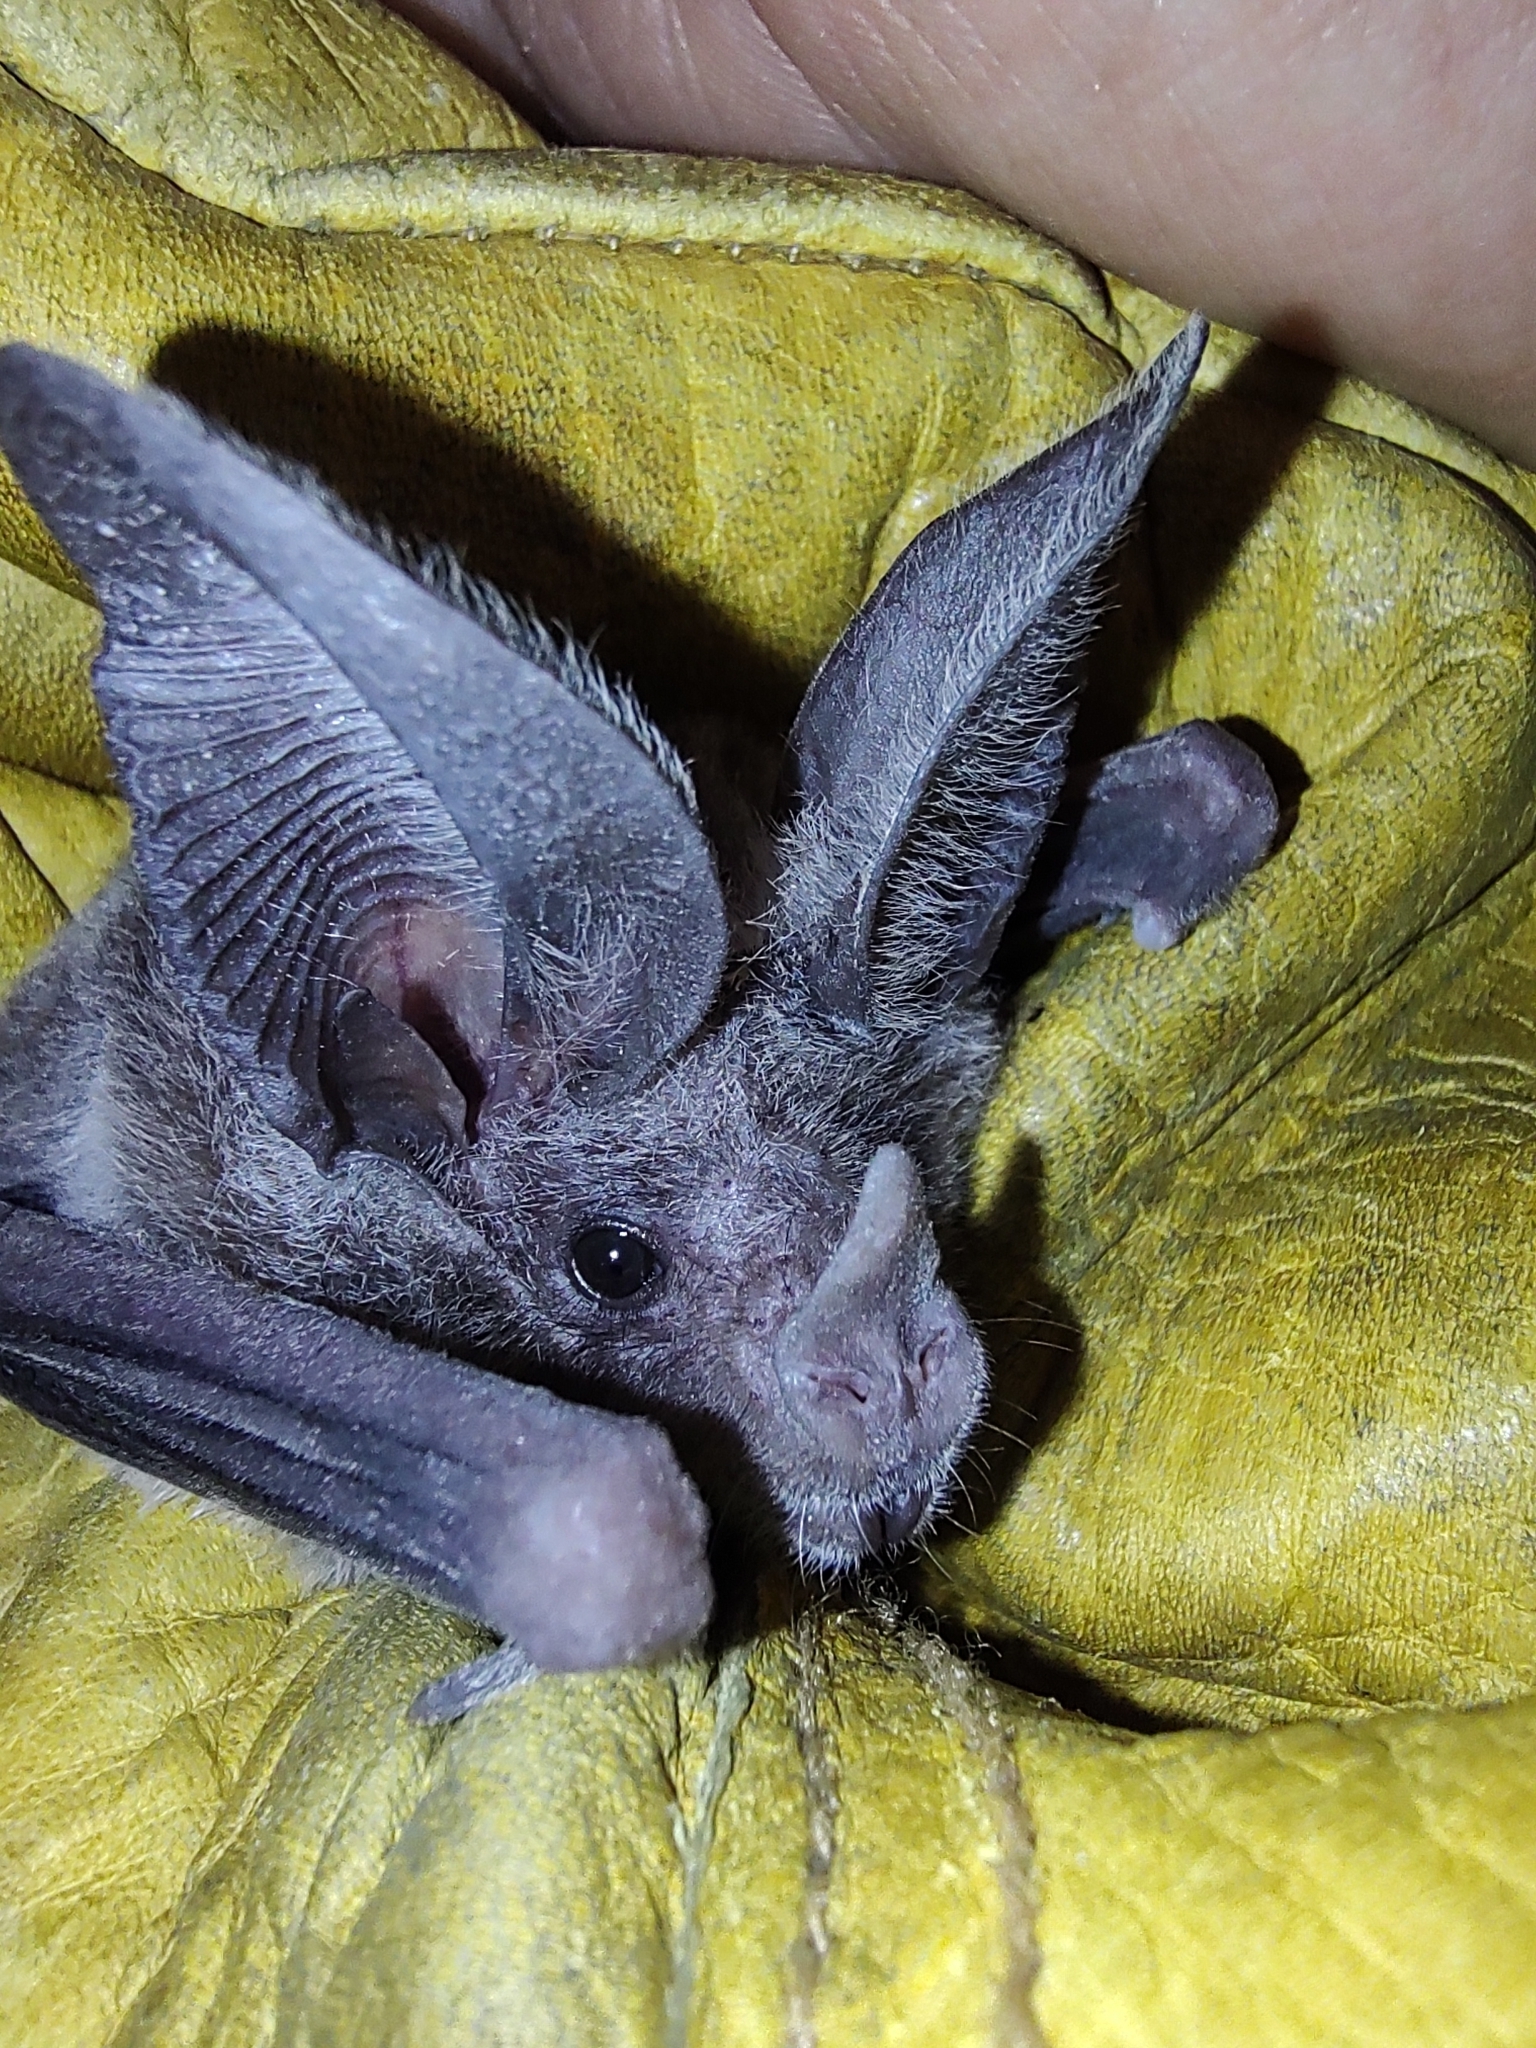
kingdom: Animalia
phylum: Chordata
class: Mammalia
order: Chiroptera
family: Phyllostomidae
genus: Macrotus
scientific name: Macrotus waterhousii
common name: Waterhouse's leaf-nosed bat
